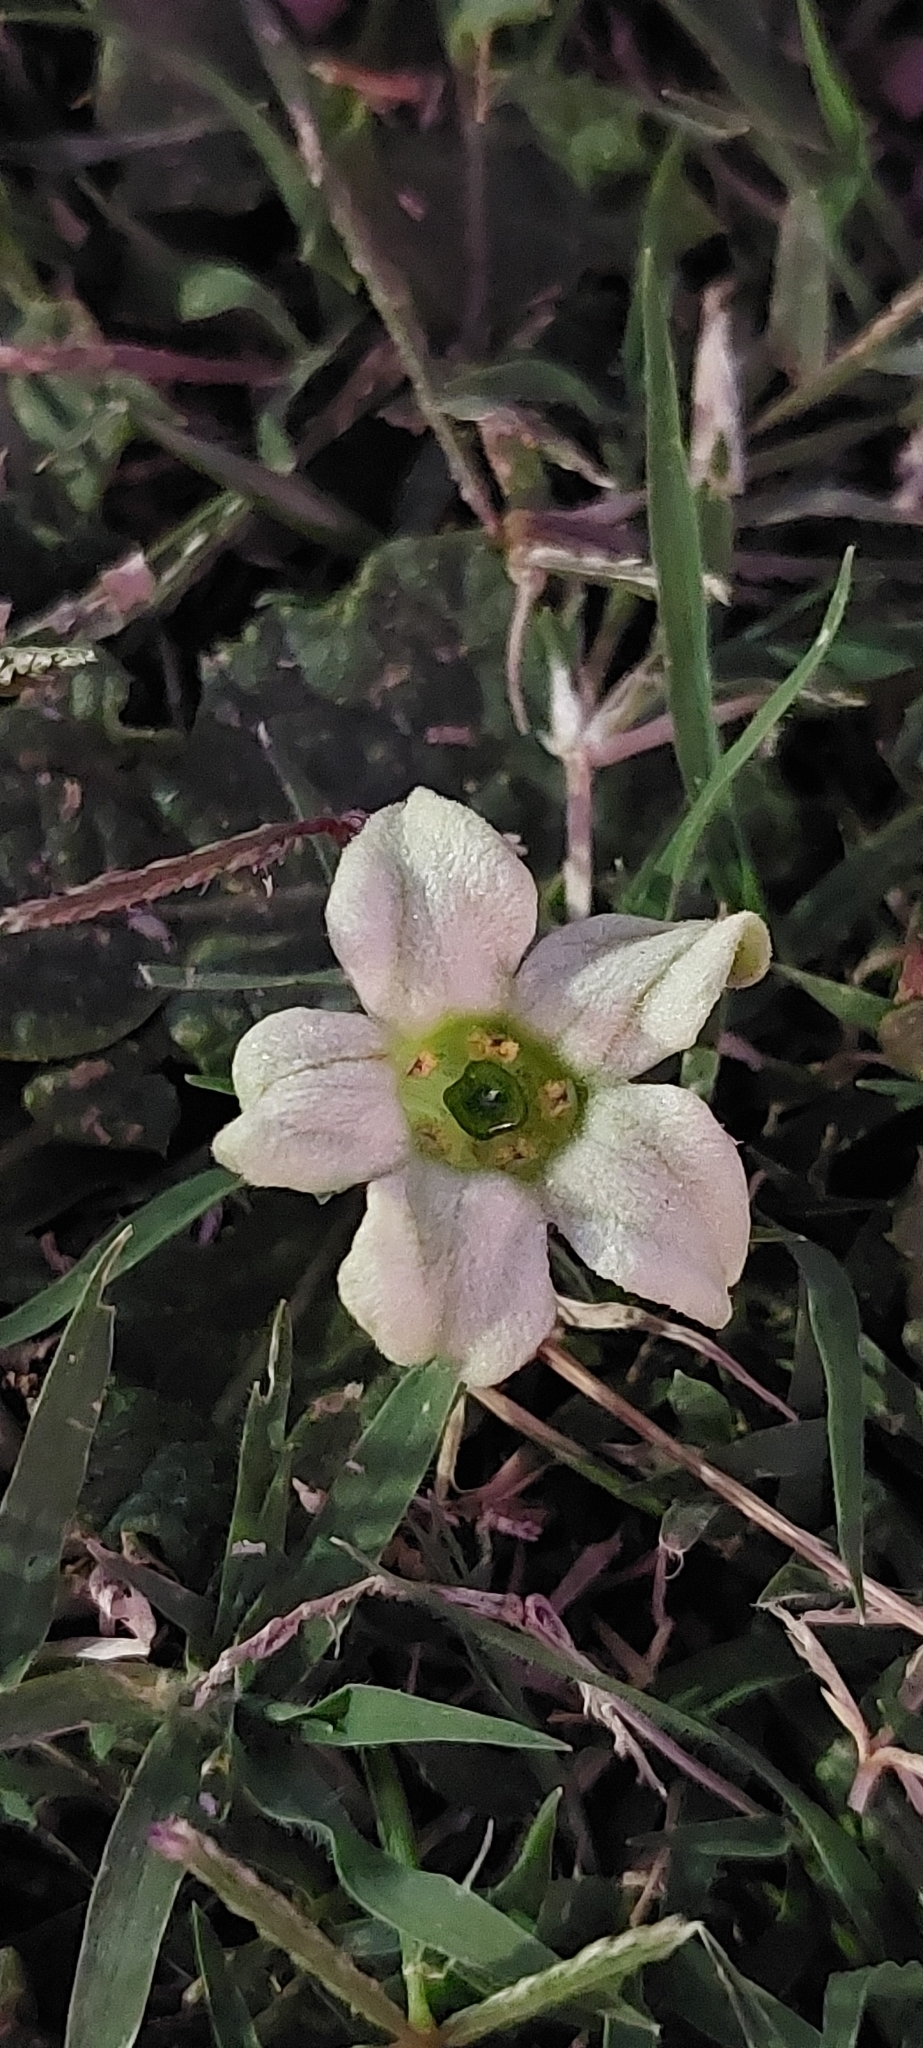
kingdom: Plantae
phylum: Tracheophyta
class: Magnoliopsida
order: Solanales
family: Solanaceae
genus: Jaborosa
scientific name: Jaborosa runcinata
